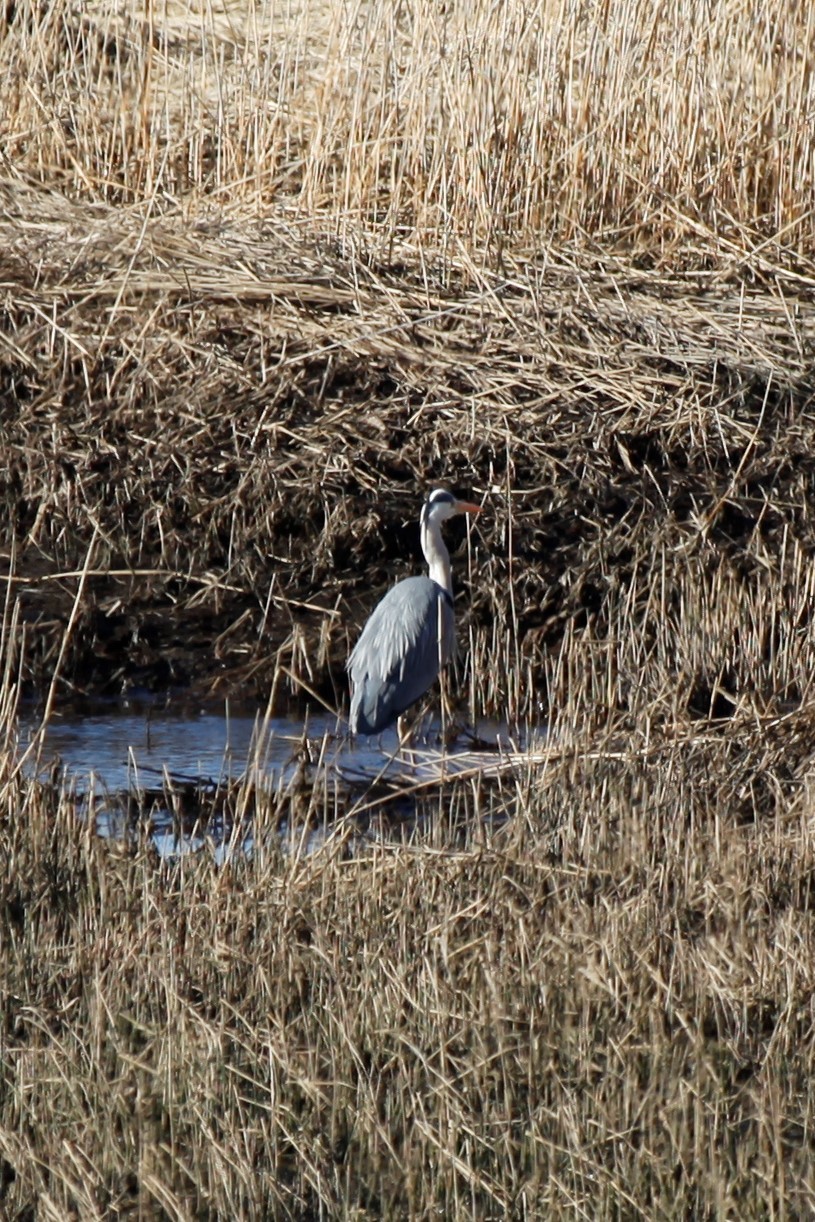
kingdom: Animalia
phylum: Chordata
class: Aves
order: Pelecaniformes
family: Ardeidae
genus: Ardea
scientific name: Ardea cinerea
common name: Grey heron
